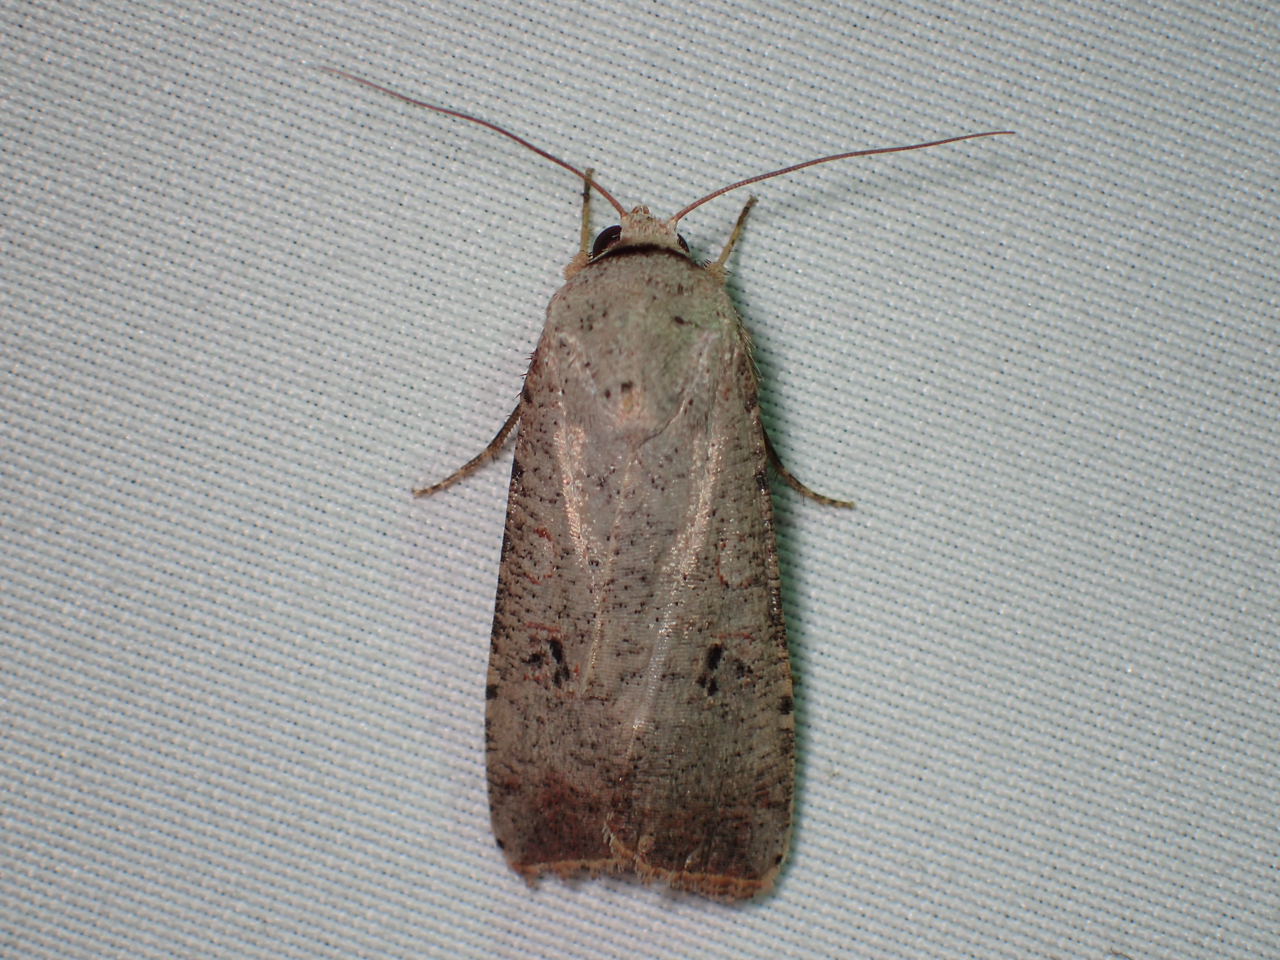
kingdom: Animalia
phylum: Arthropoda
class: Insecta
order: Lepidoptera
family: Noctuidae
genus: Anicla
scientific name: Anicla infecta
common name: Green cutworm
